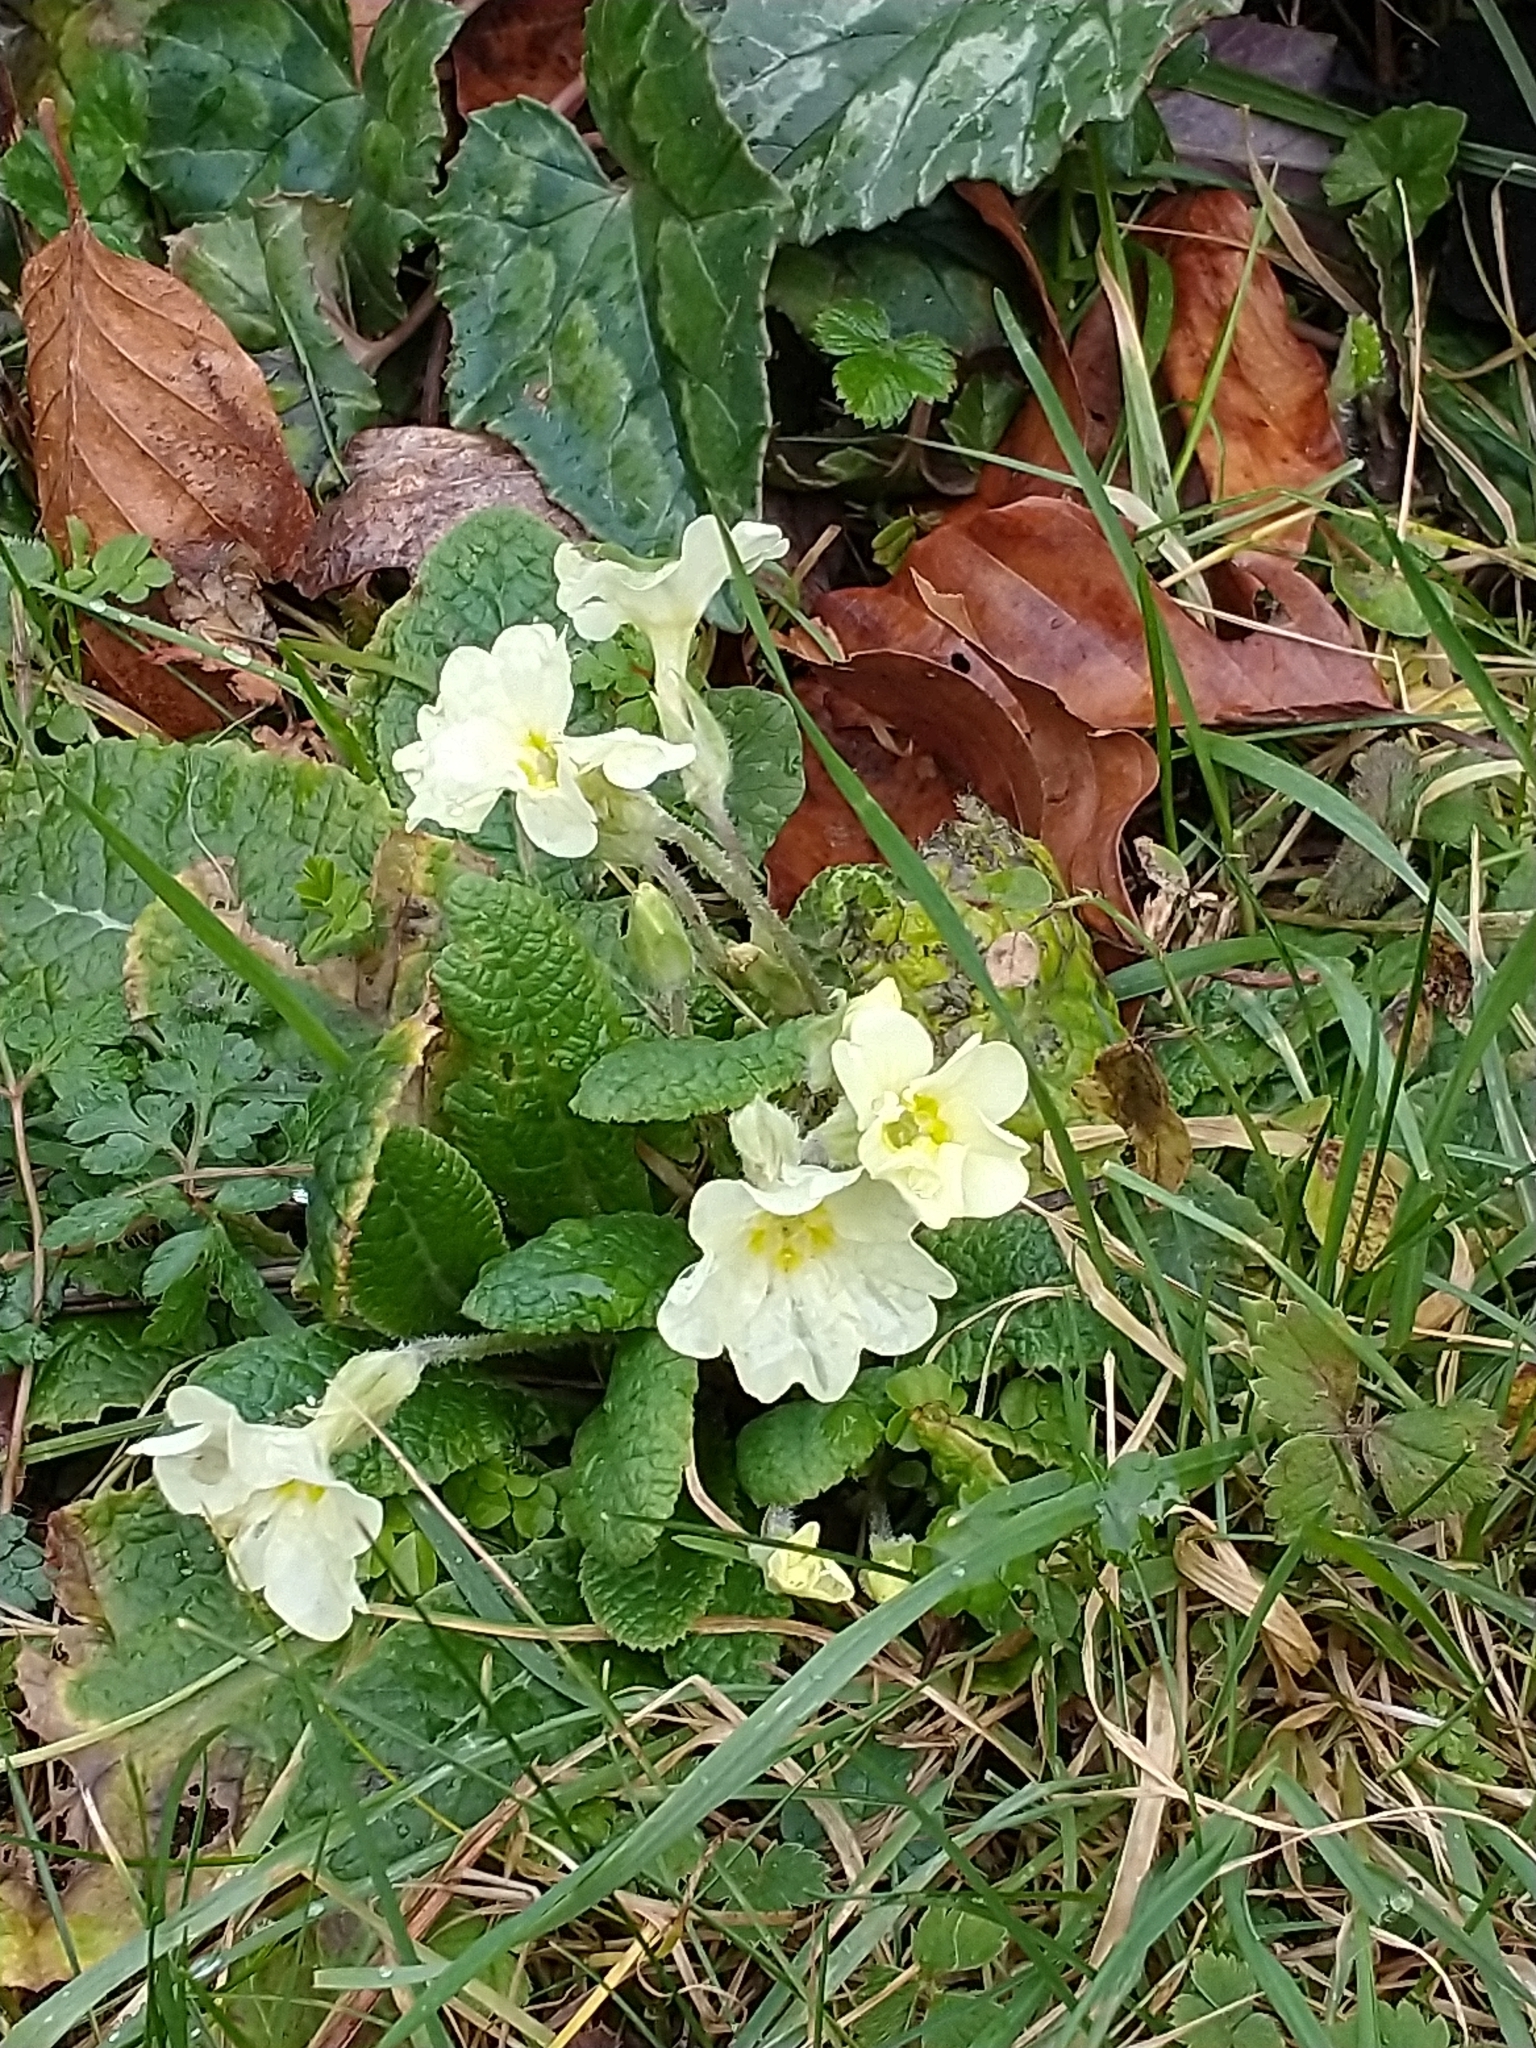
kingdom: Plantae
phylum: Tracheophyta
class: Magnoliopsida
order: Ericales
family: Primulaceae
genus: Primula
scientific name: Primula vulgaris
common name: Primrose
